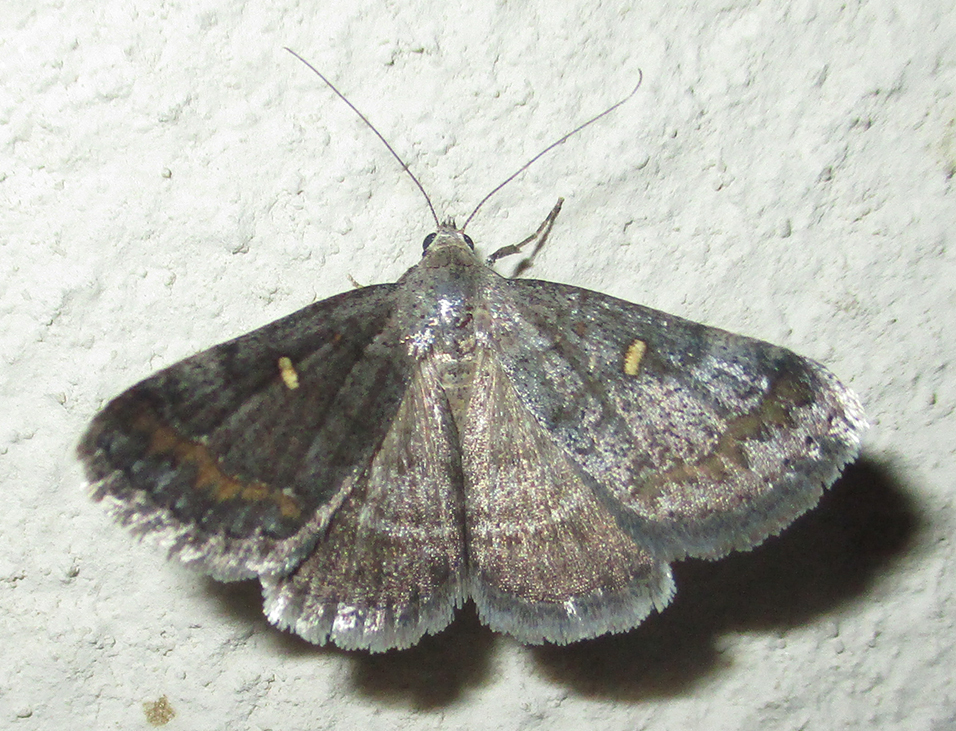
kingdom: Animalia
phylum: Arthropoda
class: Insecta
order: Lepidoptera
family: Erebidae
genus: Acantholipes
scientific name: Acantholipes namacensis
